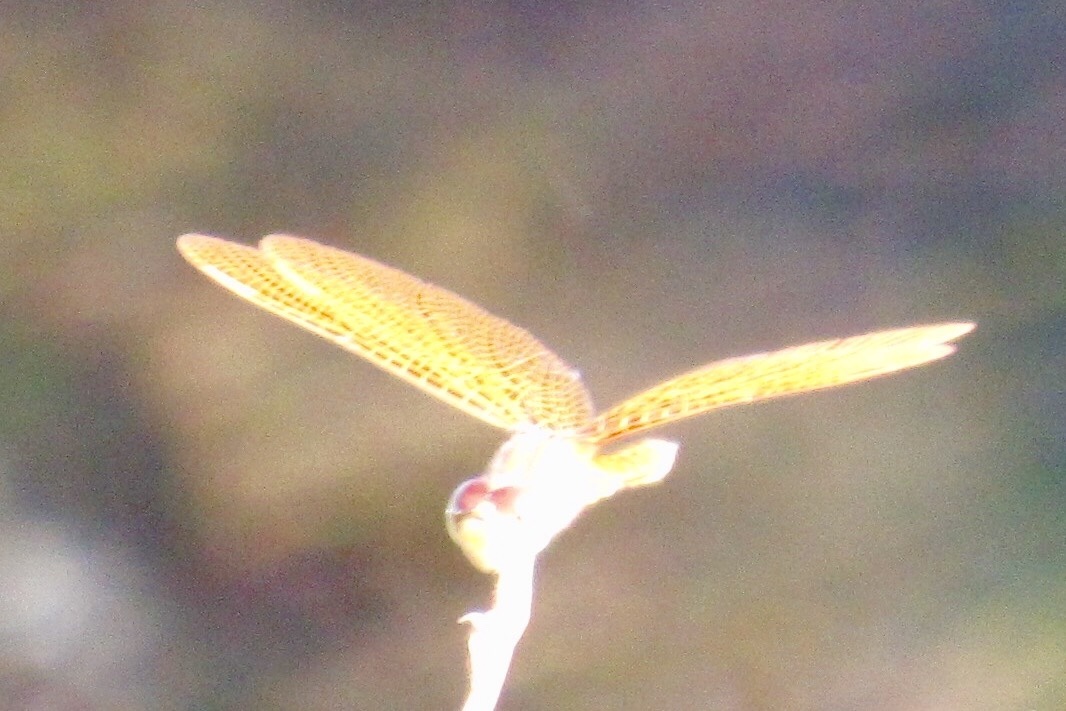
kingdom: Animalia
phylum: Arthropoda
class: Insecta
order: Odonata
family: Libellulidae
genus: Perithemis
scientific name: Perithemis intensa
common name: Mexican amberwing
